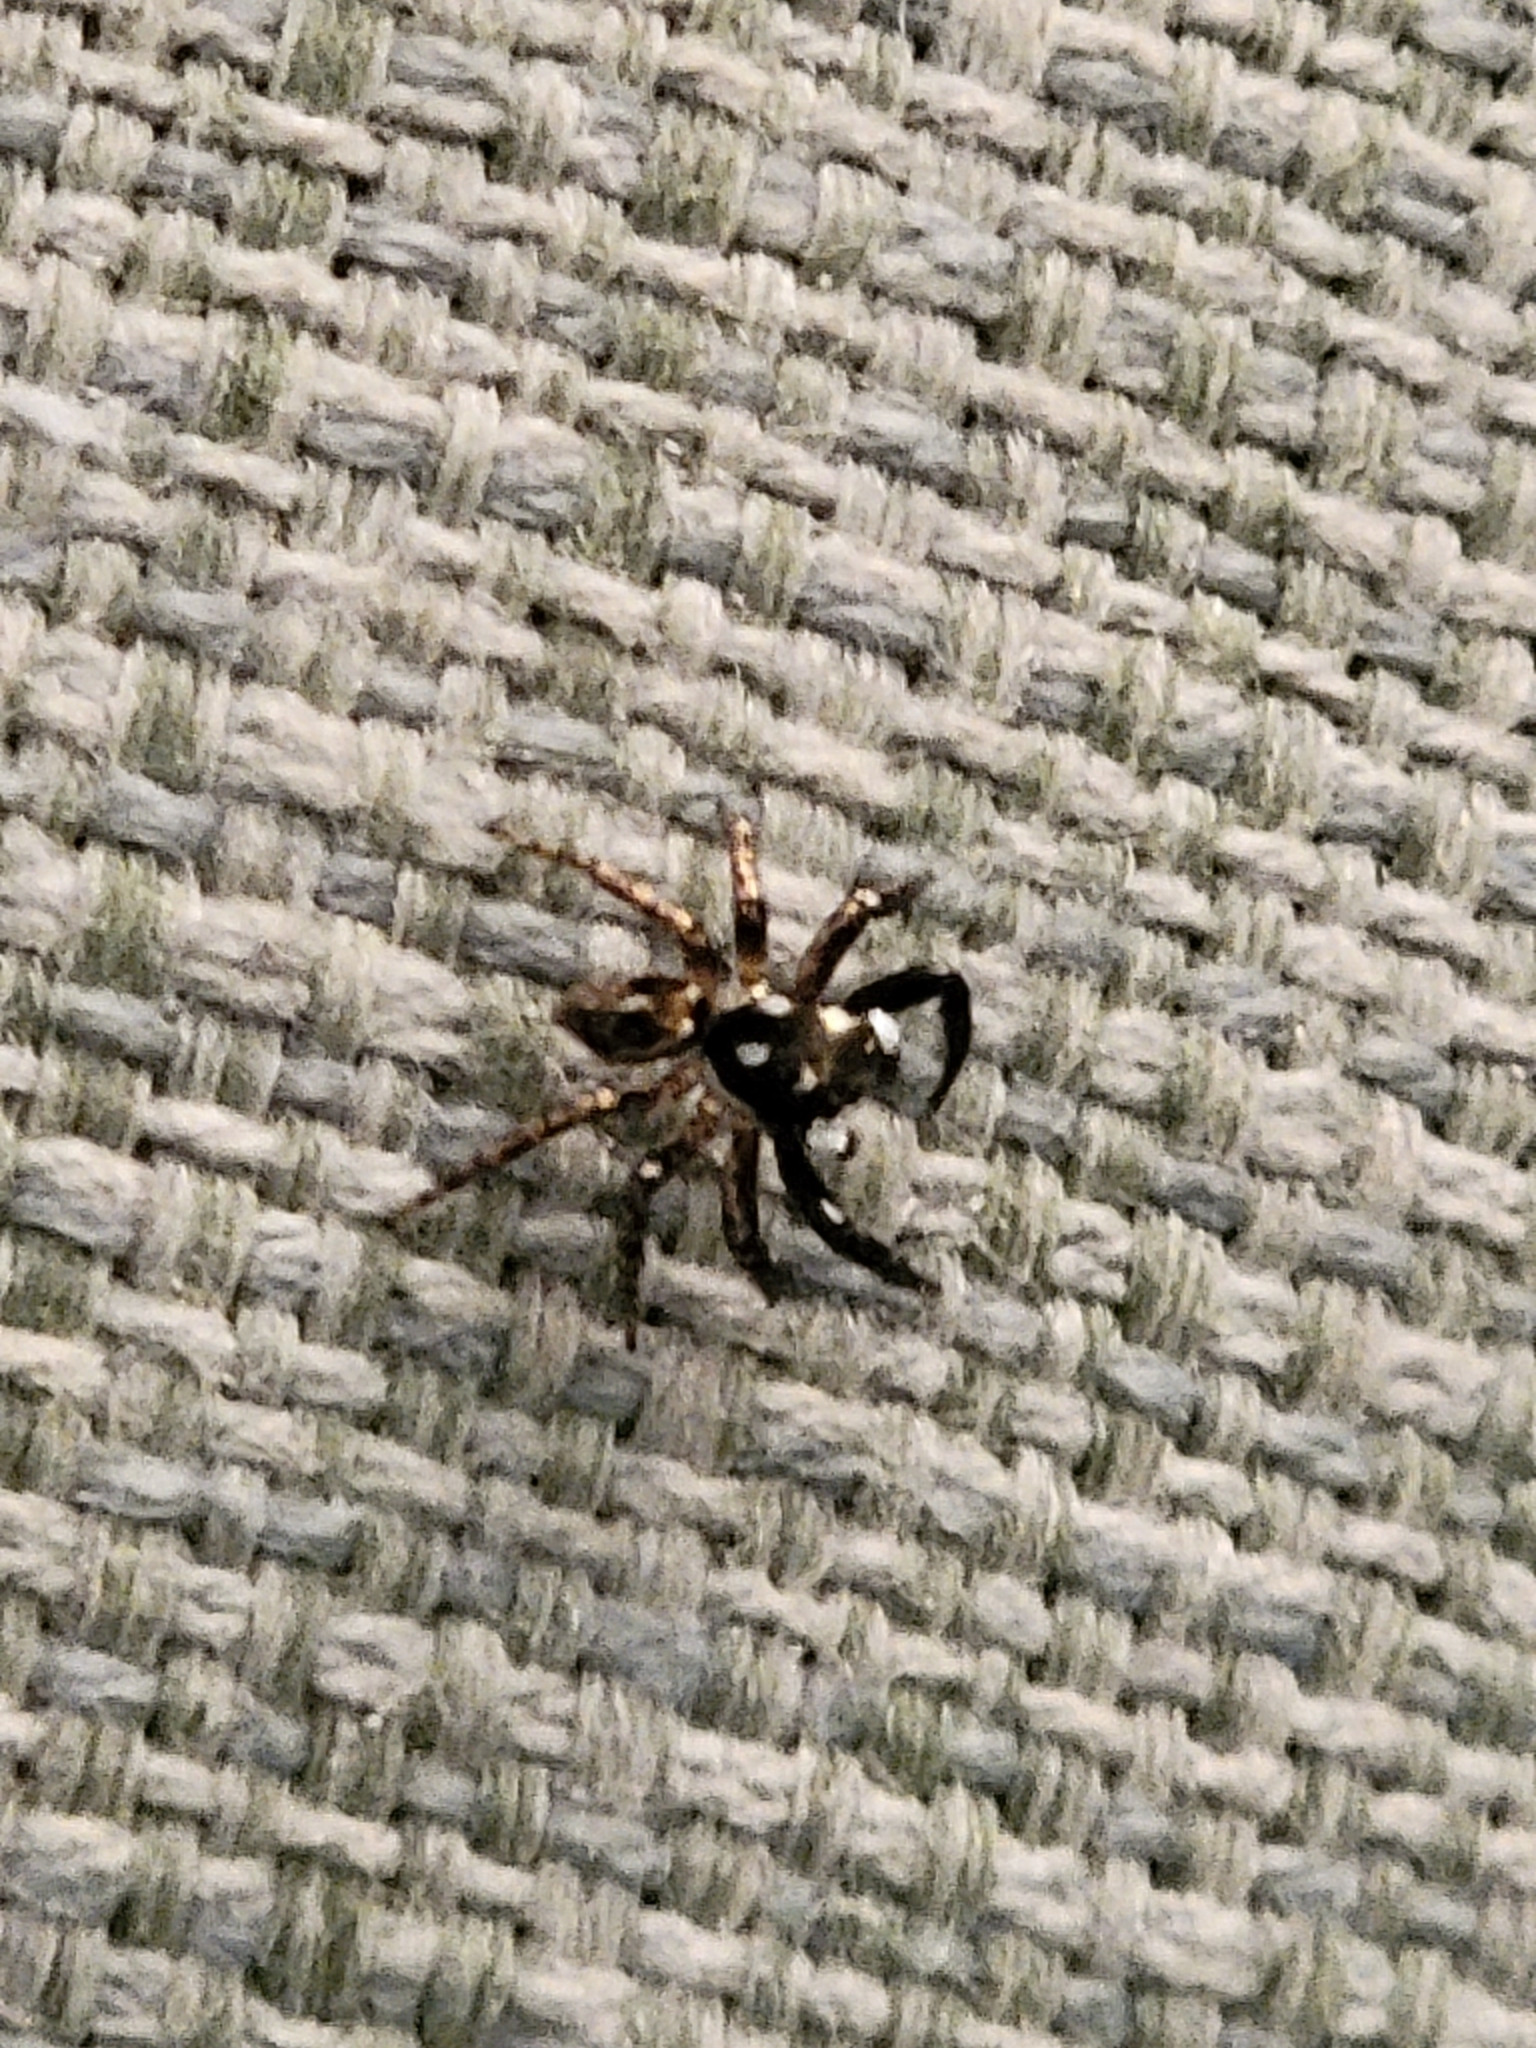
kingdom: Animalia
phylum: Arthropoda
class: Arachnida
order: Araneae
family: Salticidae
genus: Anasaitis
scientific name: Anasaitis canosa
